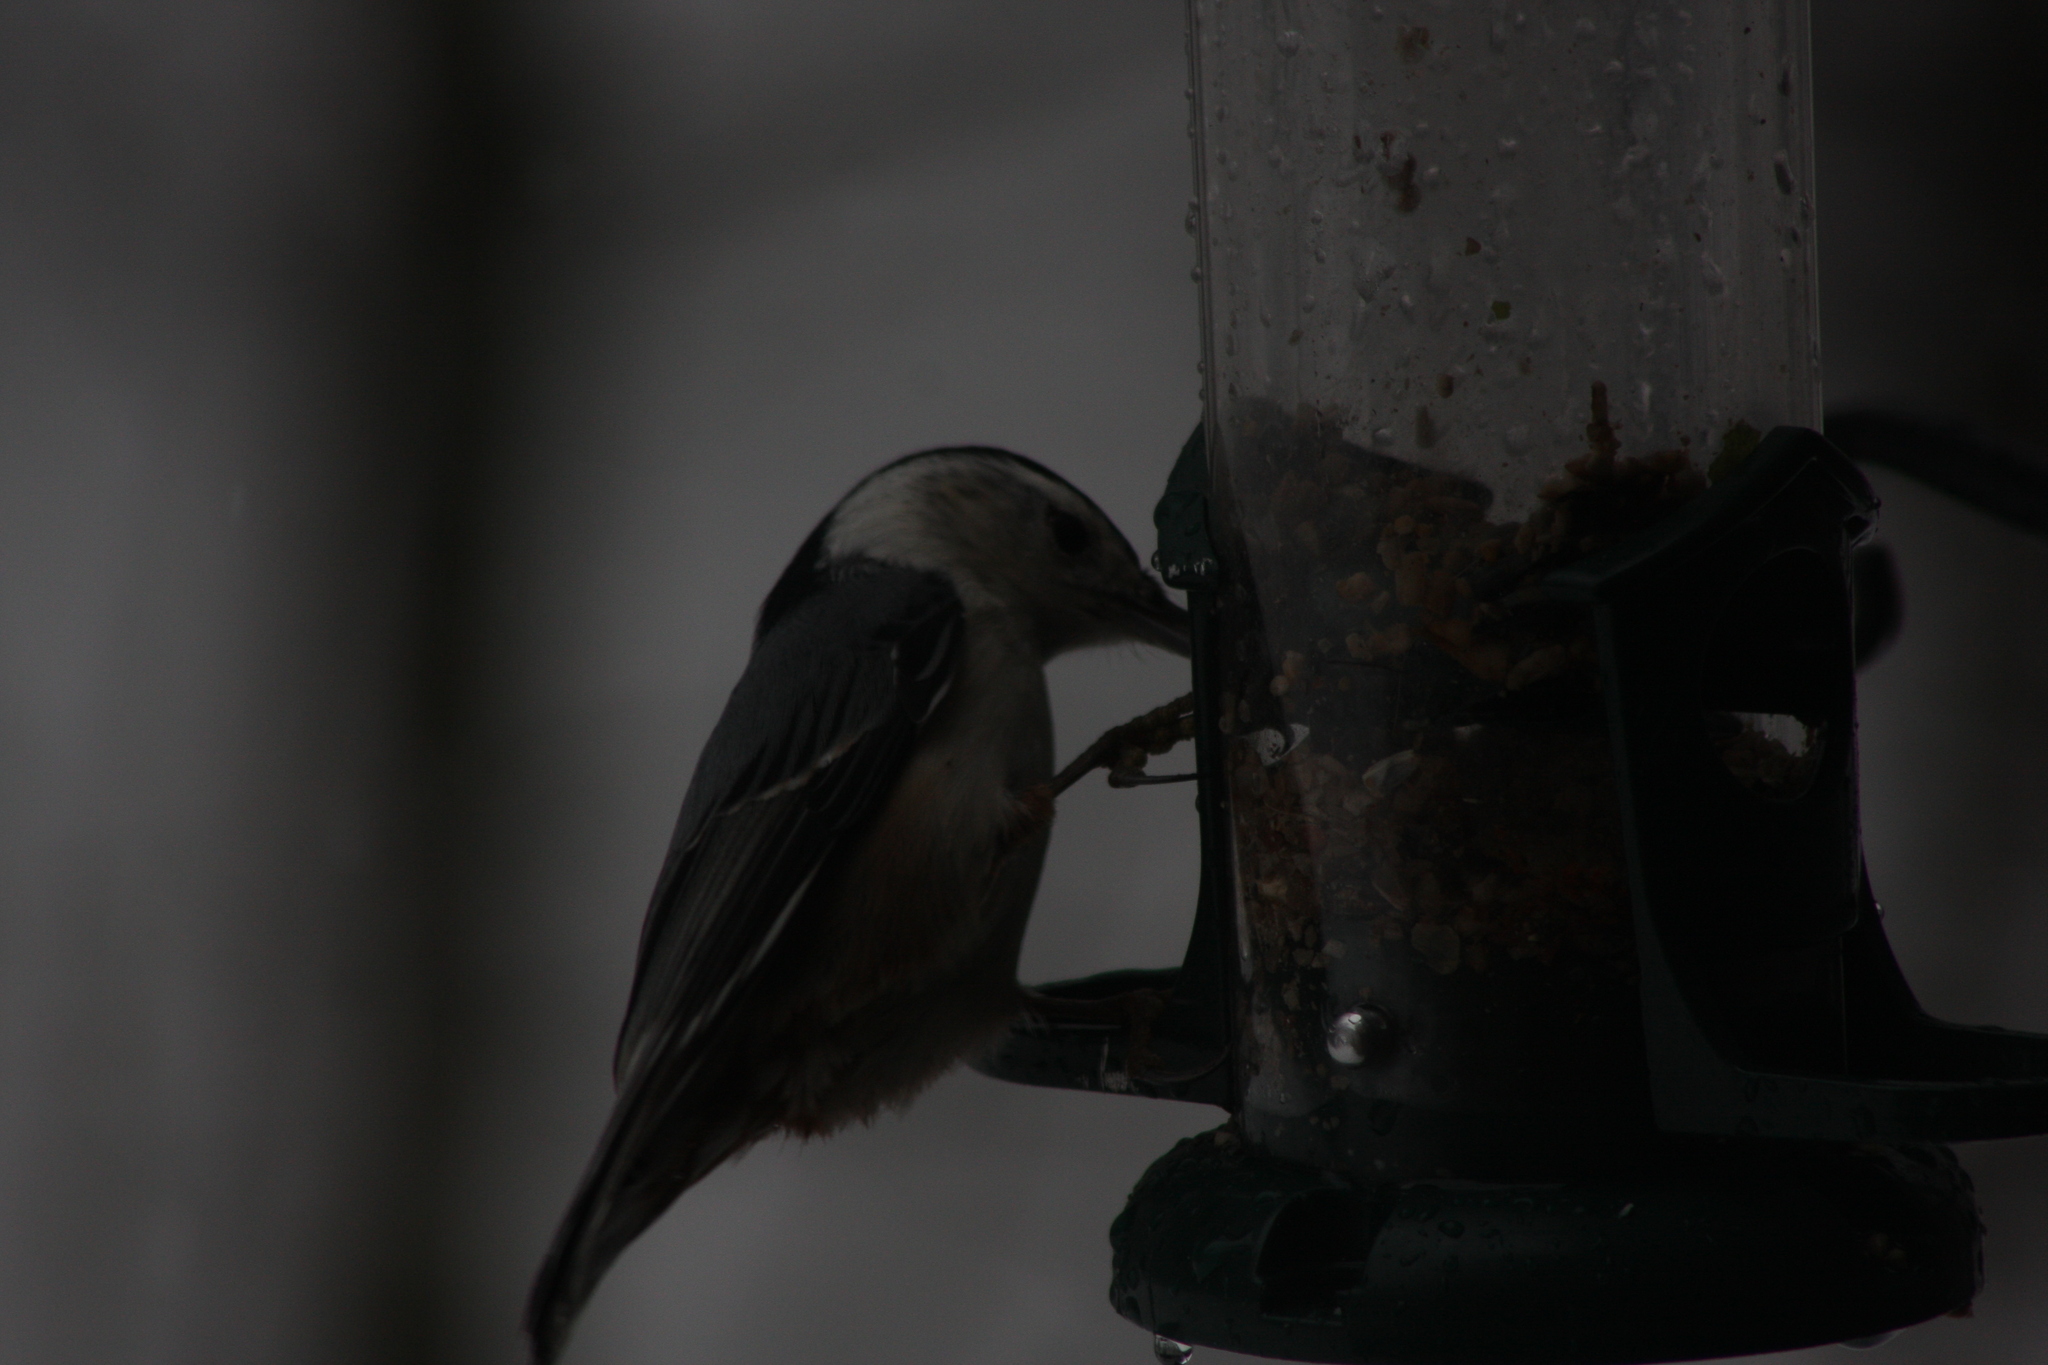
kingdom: Animalia
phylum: Chordata
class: Aves
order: Passeriformes
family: Sittidae
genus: Sitta
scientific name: Sitta carolinensis
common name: White-breasted nuthatch
